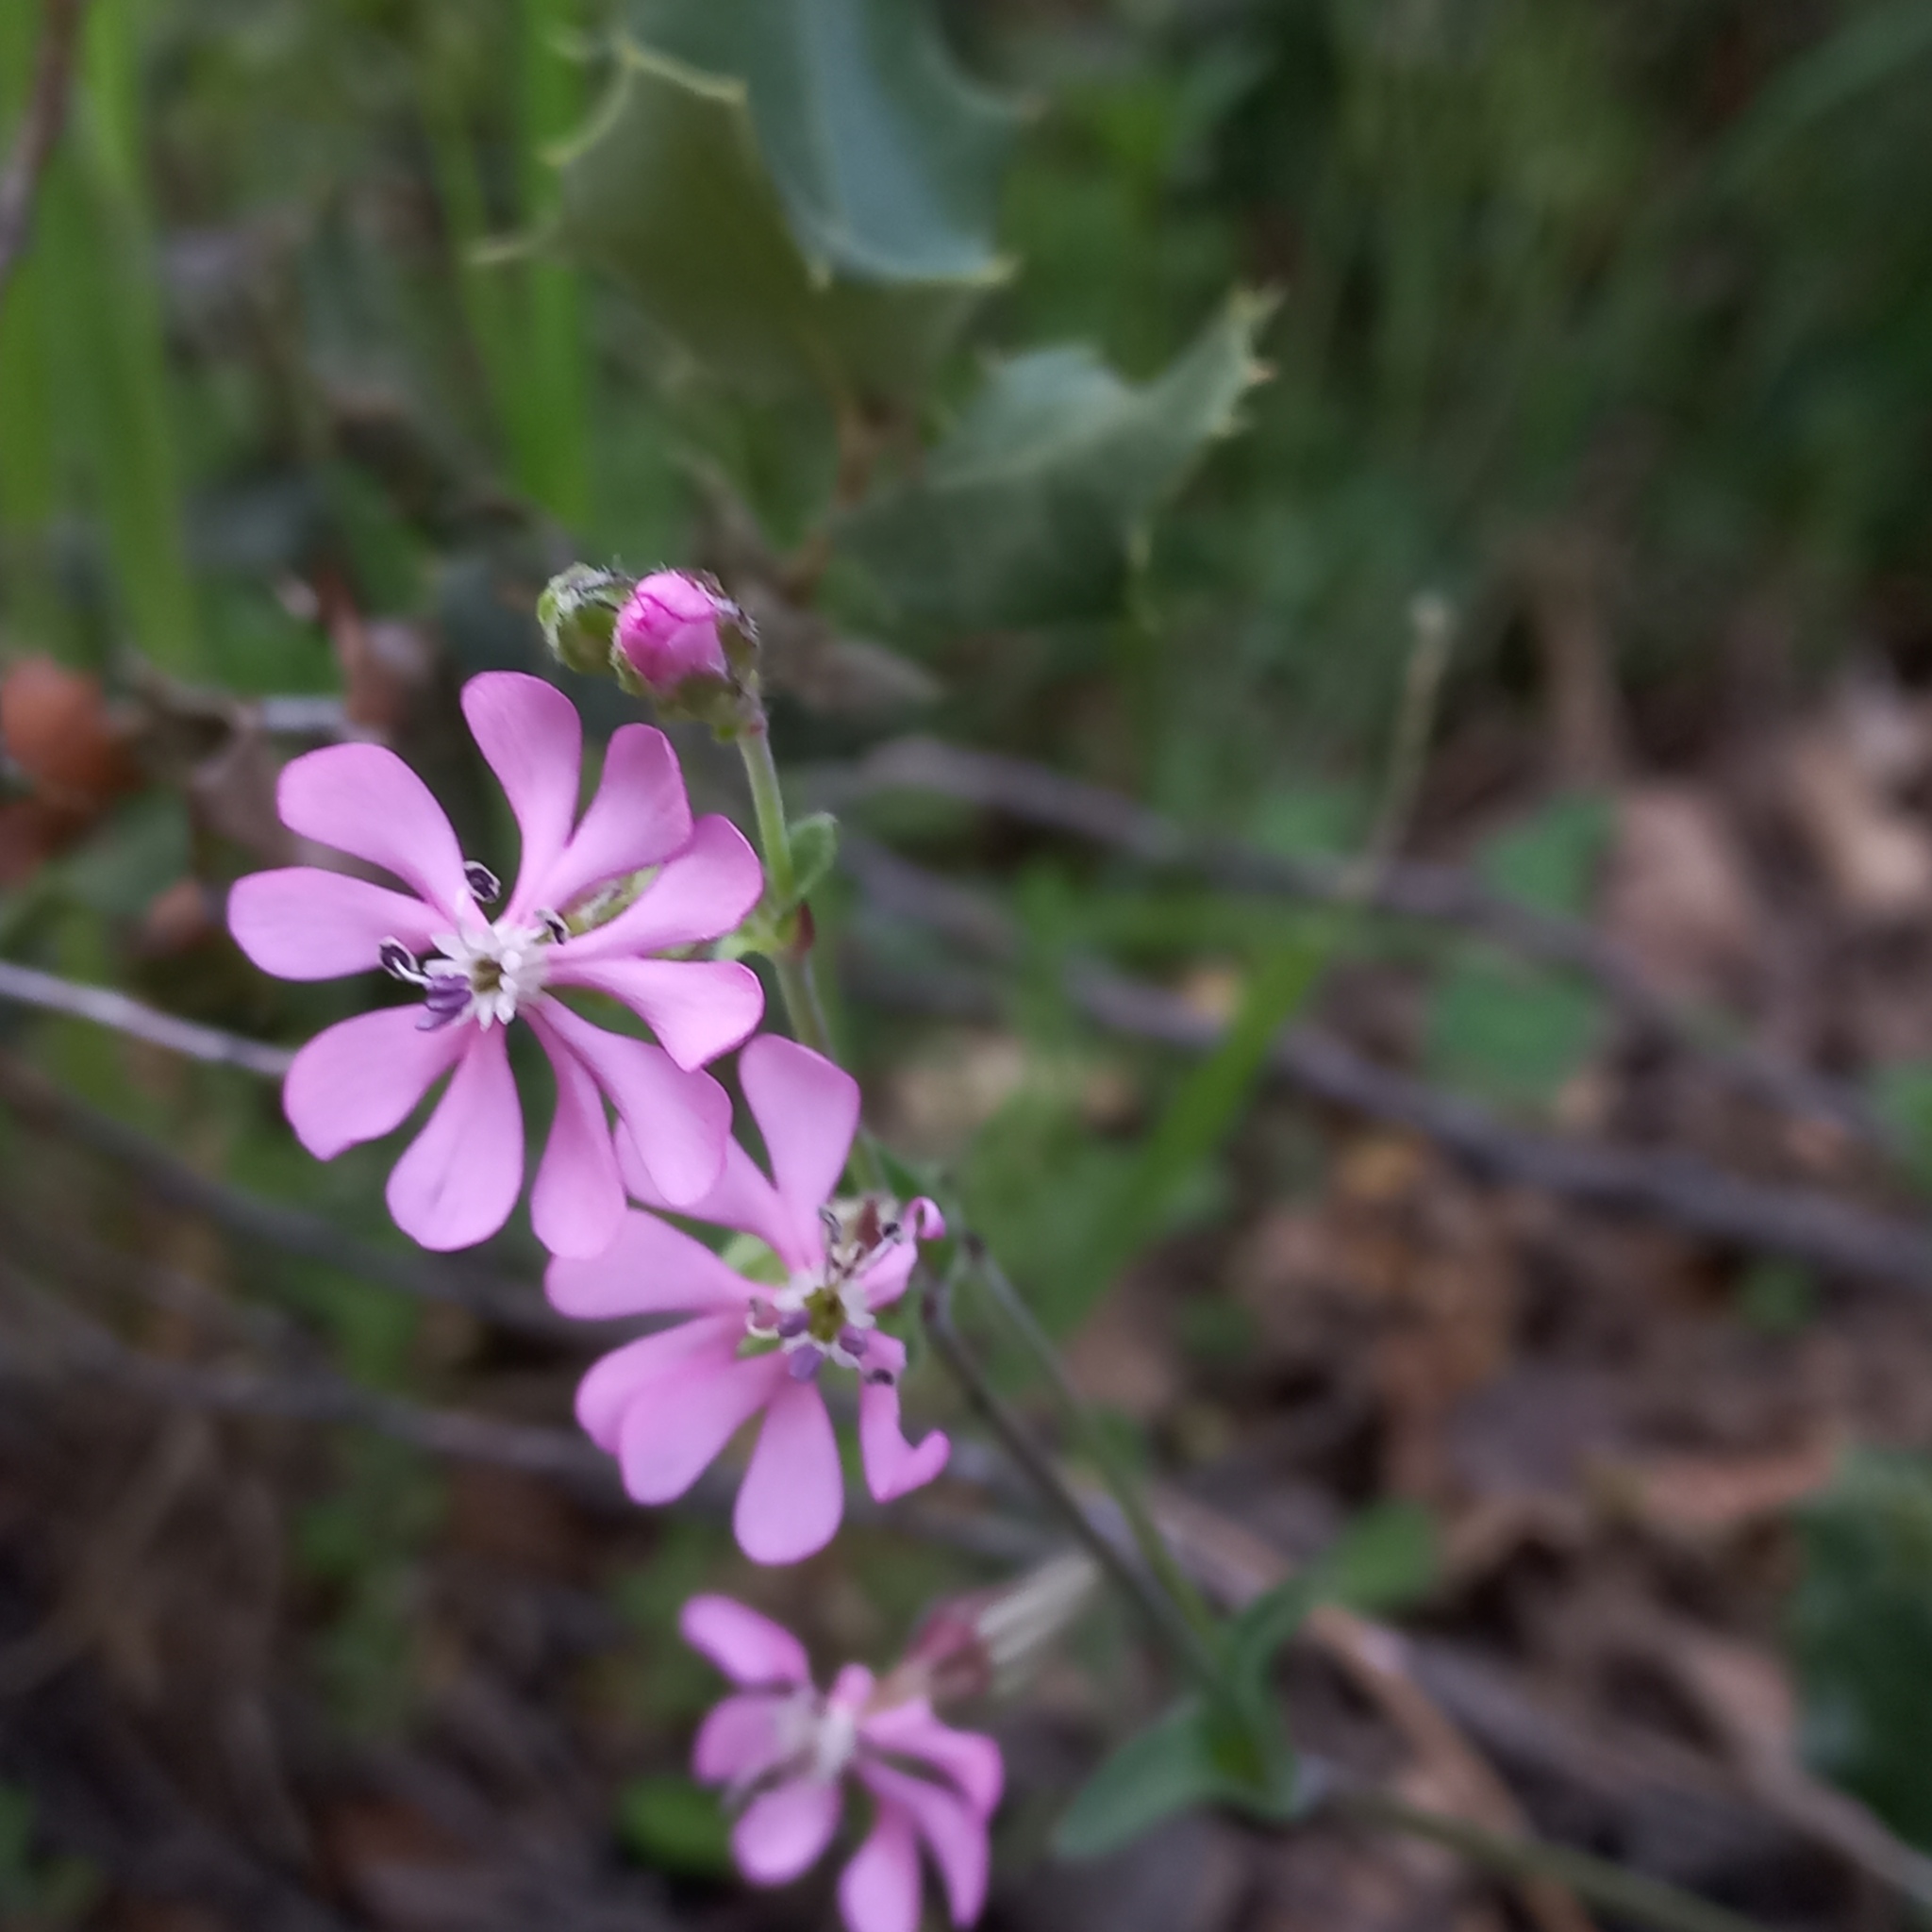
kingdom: Plantae
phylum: Tracheophyta
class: Magnoliopsida
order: Caryophyllales
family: Caryophyllaceae
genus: Silene
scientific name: Silene colorata
